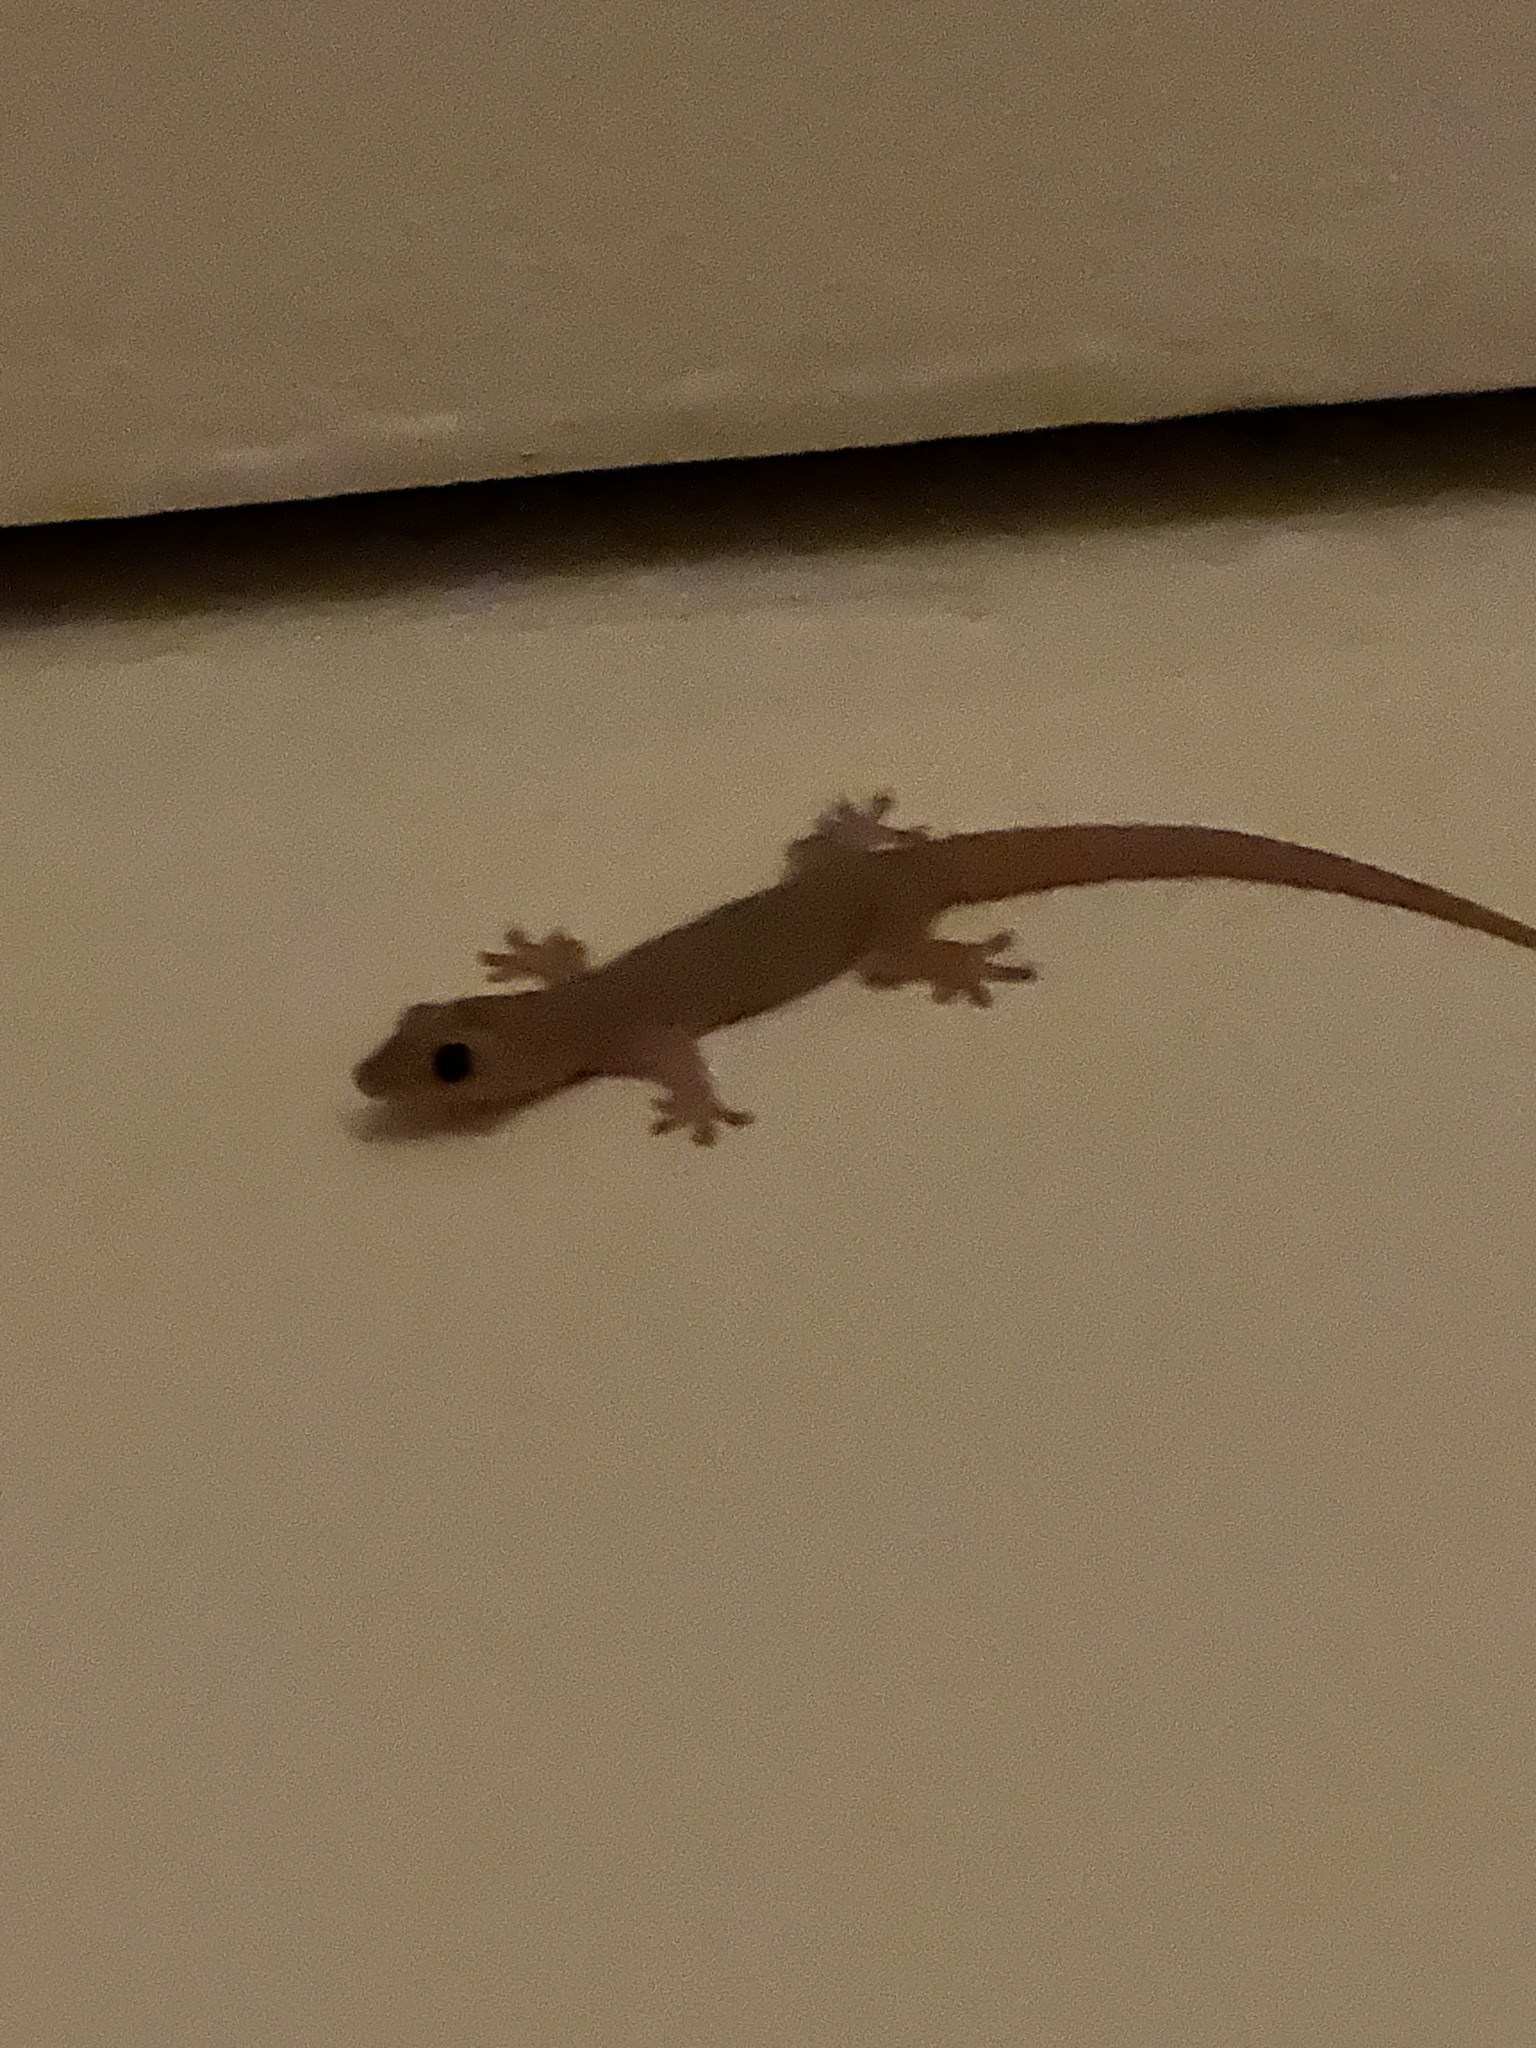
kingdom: Animalia
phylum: Chordata
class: Squamata
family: Gekkonidae
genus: Hemidactylus
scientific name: Hemidactylus frenatus
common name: Common house gecko
